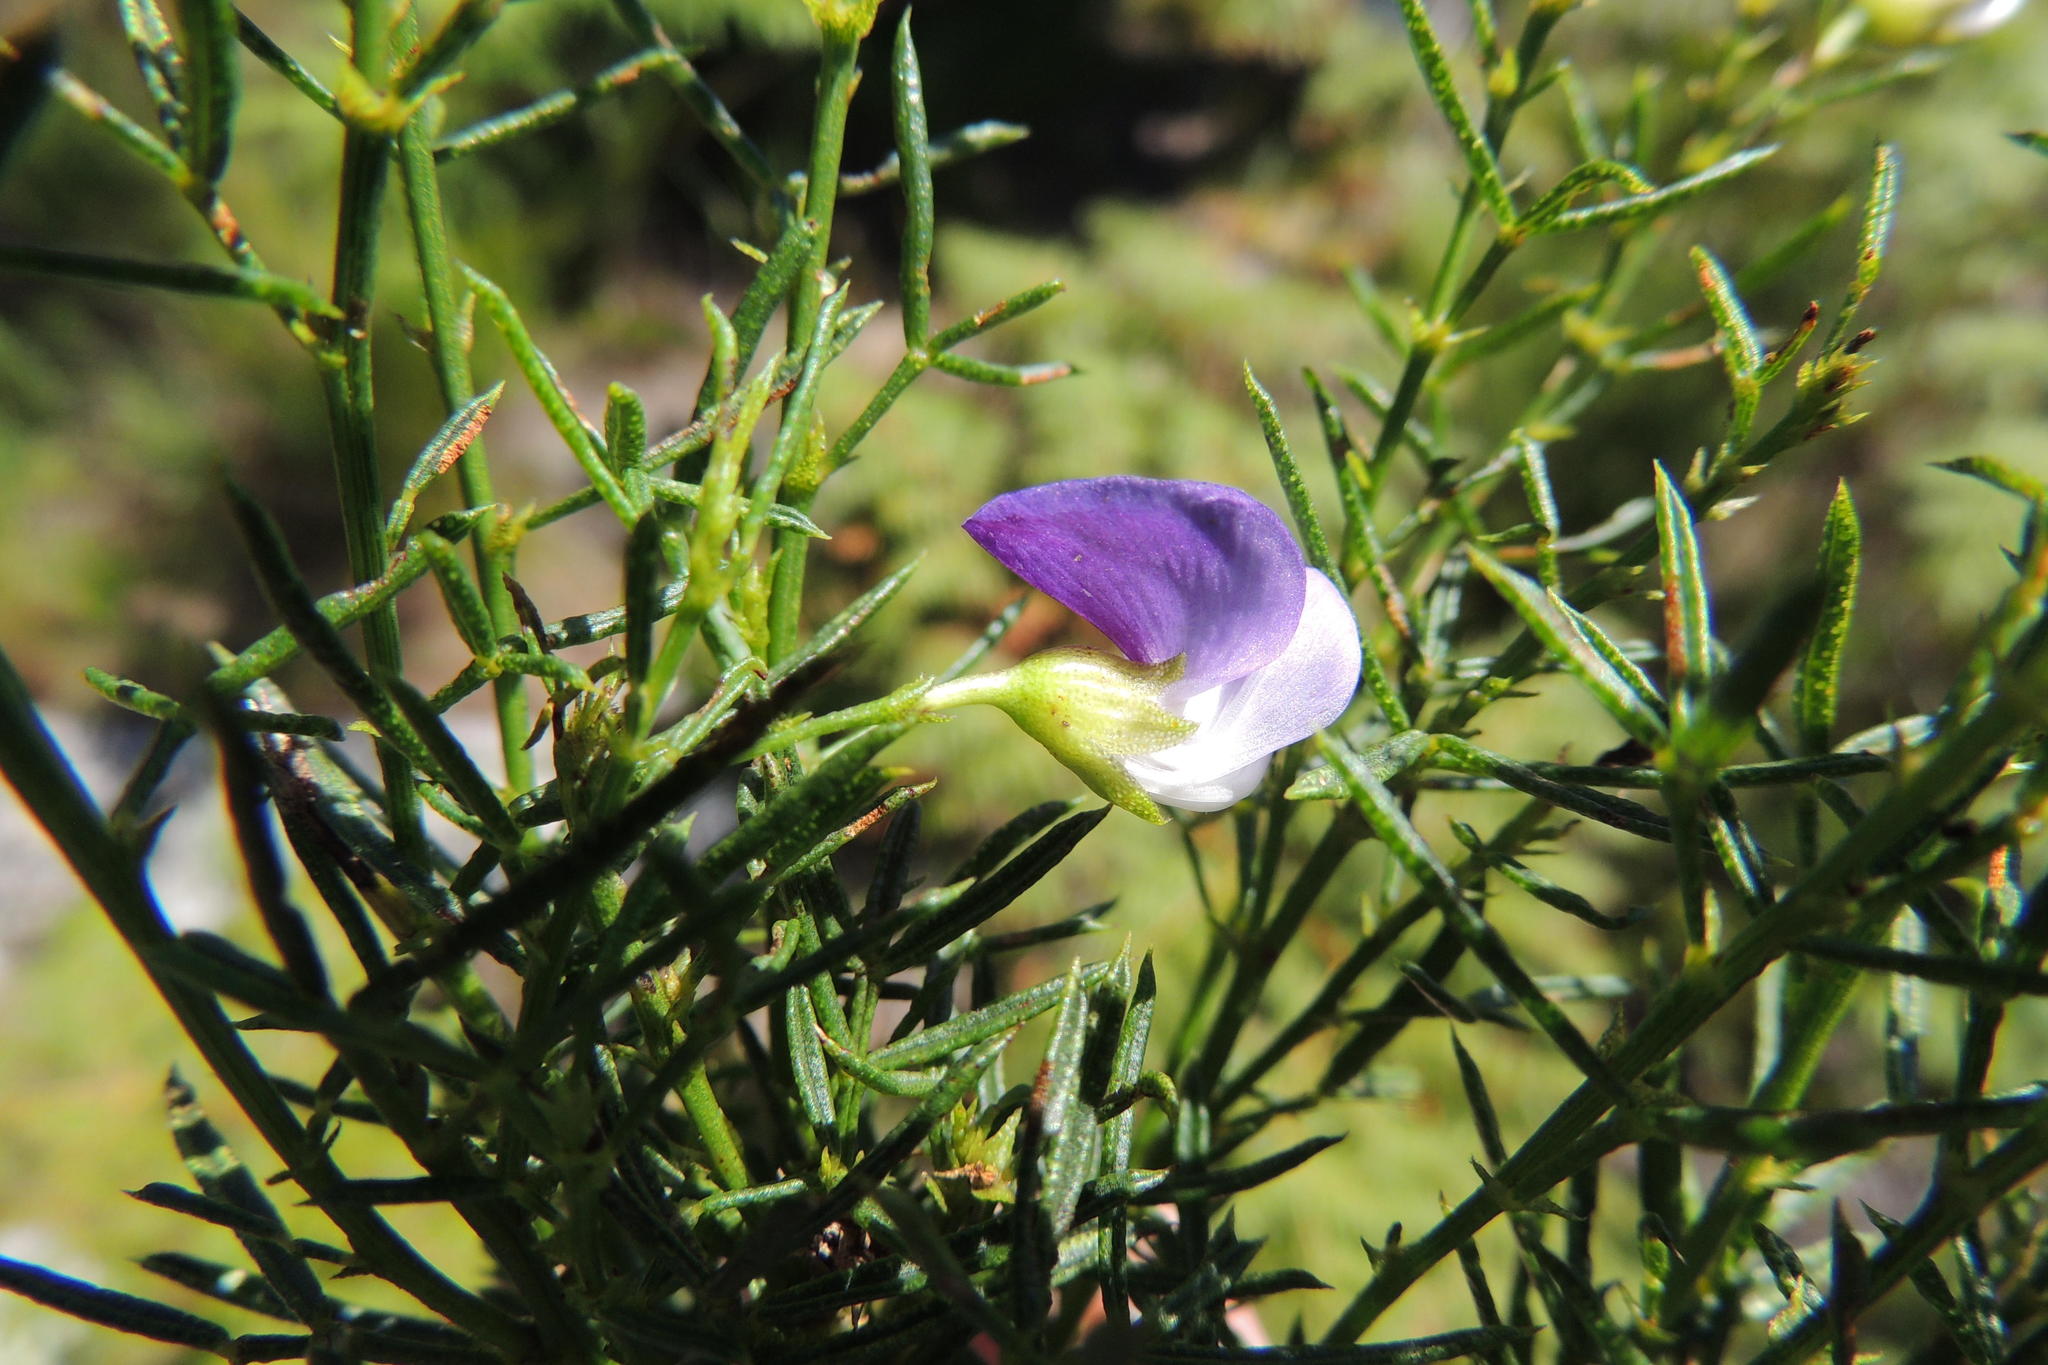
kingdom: Plantae
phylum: Tracheophyta
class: Magnoliopsida
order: Fabales
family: Fabaceae
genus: Psoralea
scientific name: Psoralea laevigata
